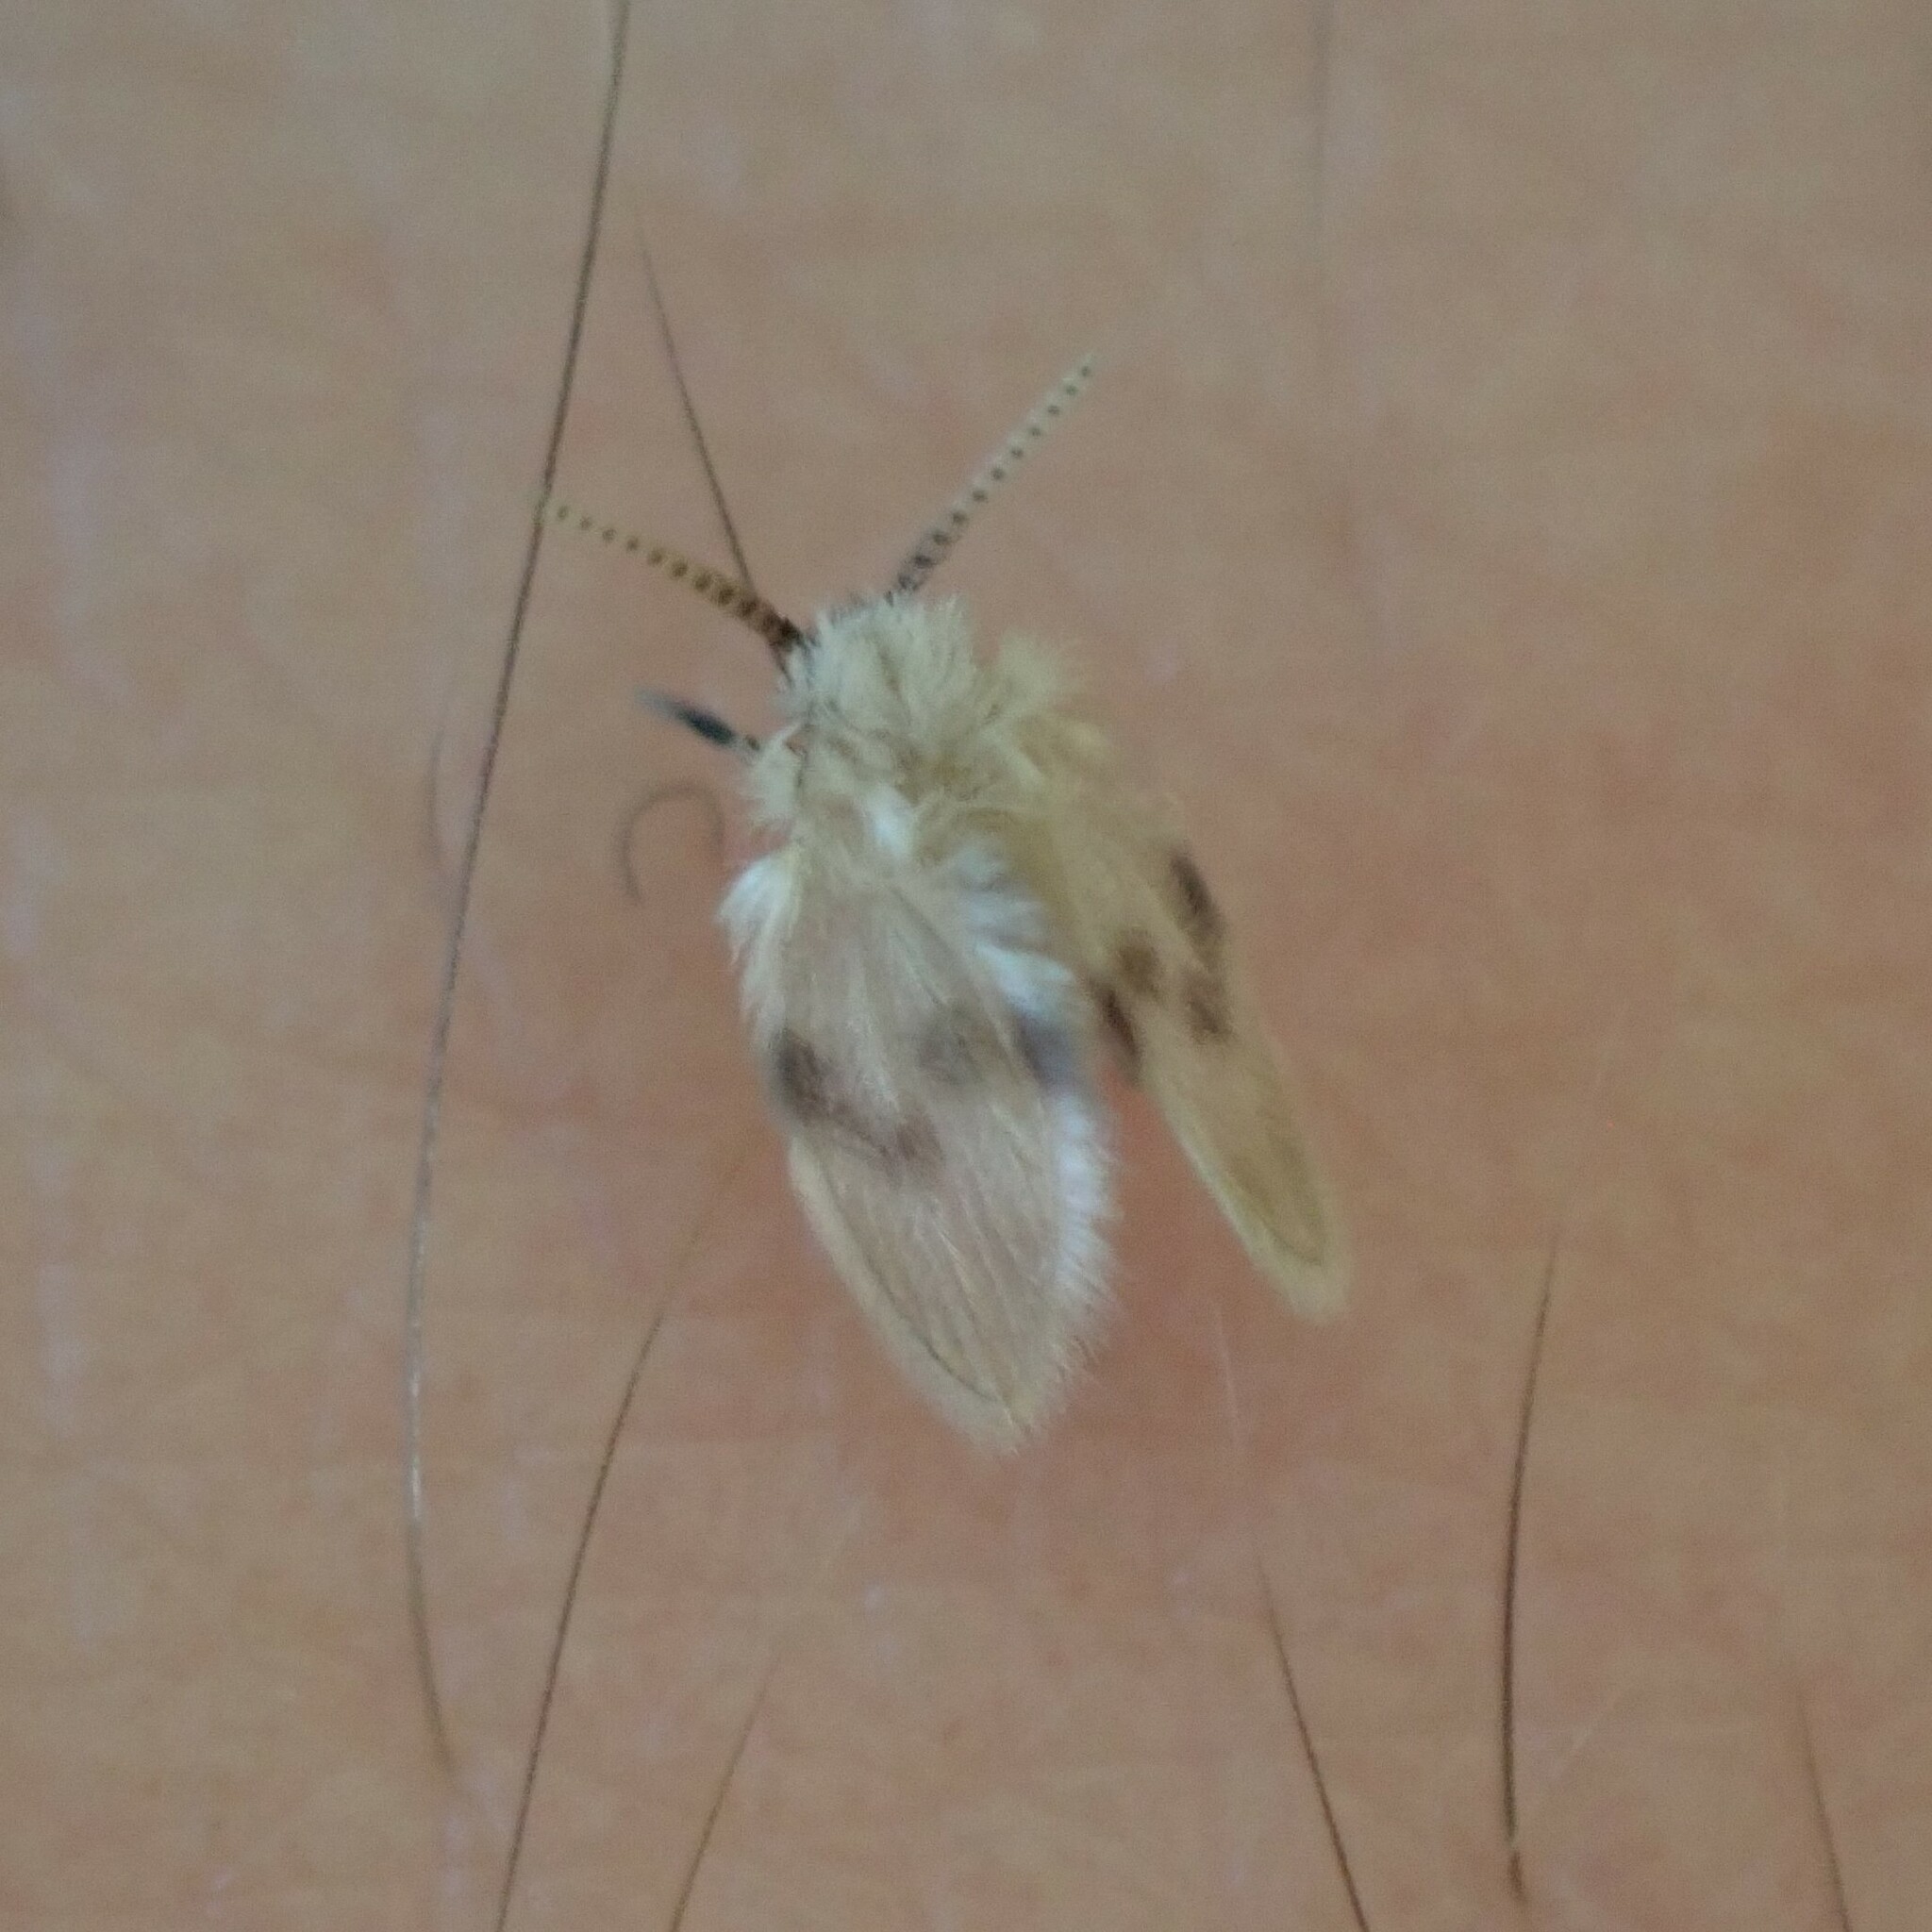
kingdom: Animalia
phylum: Arthropoda
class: Insecta
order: Diptera
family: Psychodidae
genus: Psychoda
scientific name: Psychoda sigma
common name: Moth fly
